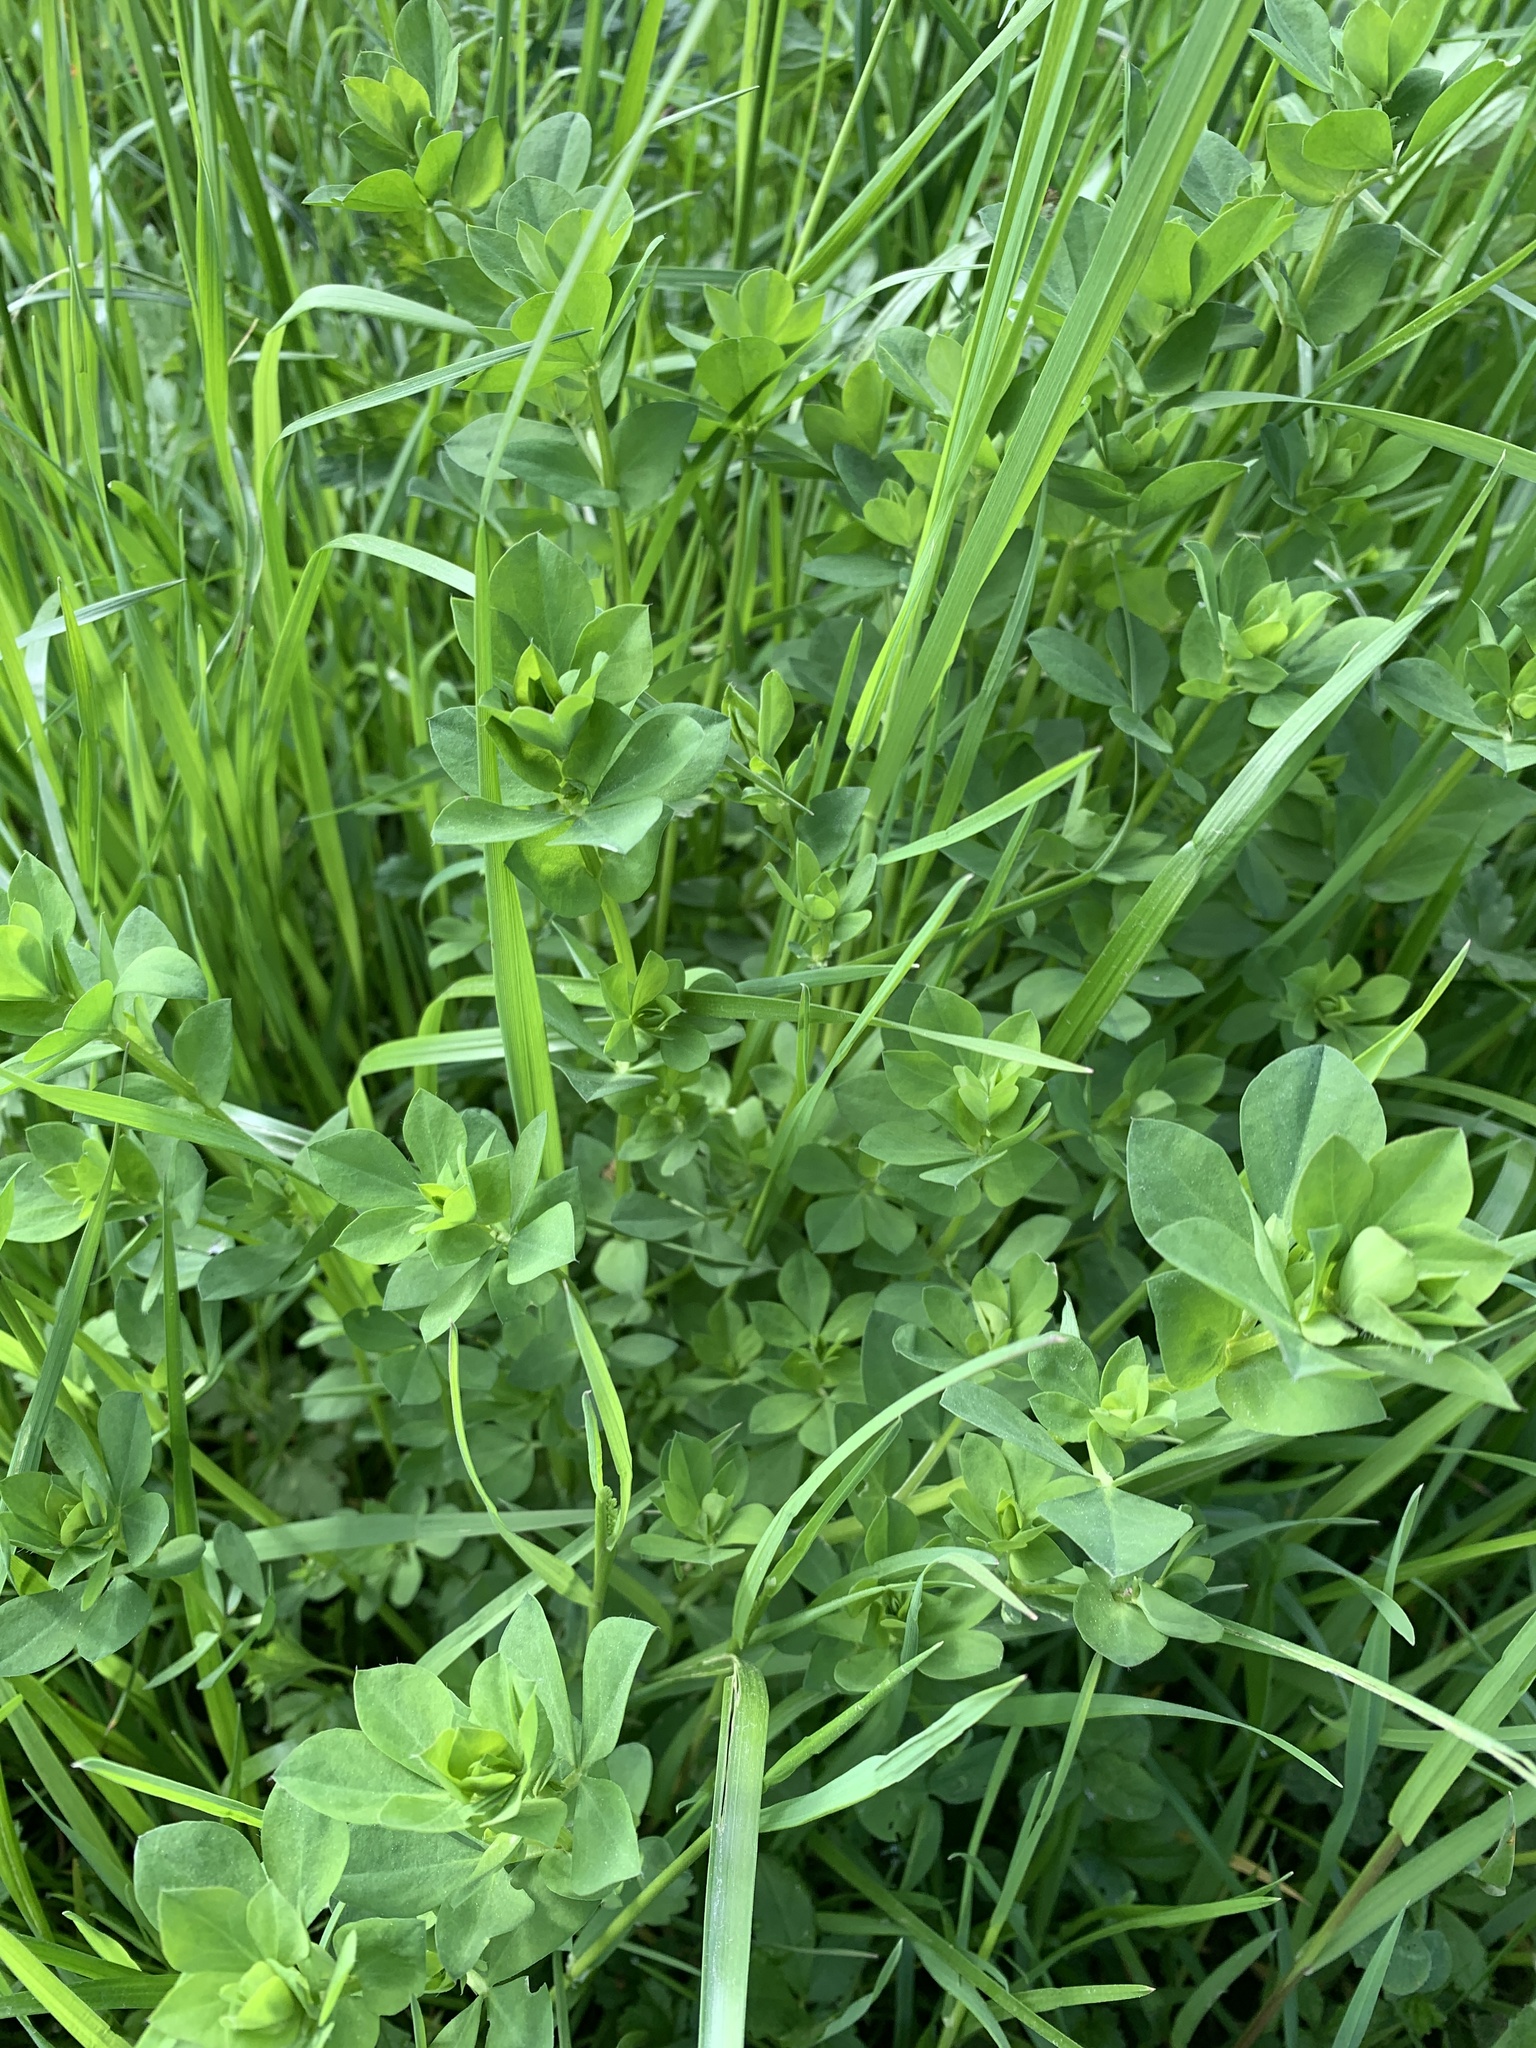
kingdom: Plantae
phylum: Tracheophyta
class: Magnoliopsida
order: Fabales
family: Fabaceae
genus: Lotus
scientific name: Lotus corniculatus
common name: Common bird's-foot-trefoil
